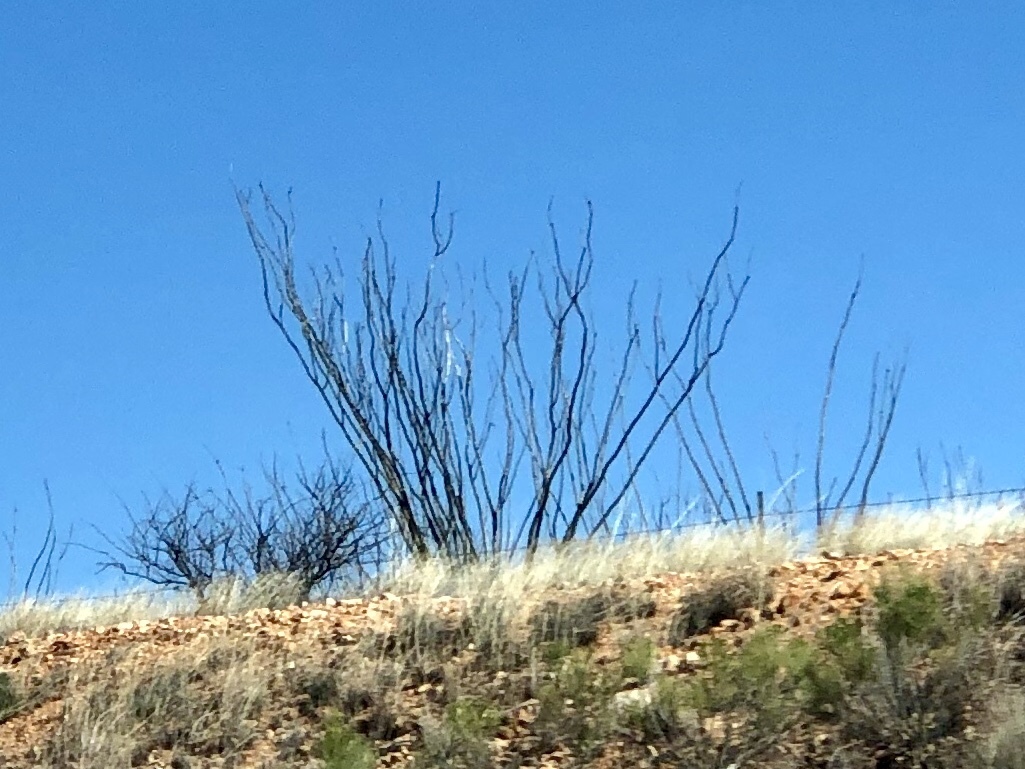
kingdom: Plantae
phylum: Tracheophyta
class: Magnoliopsida
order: Ericales
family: Fouquieriaceae
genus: Fouquieria
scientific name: Fouquieria splendens
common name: Vine-cactus
